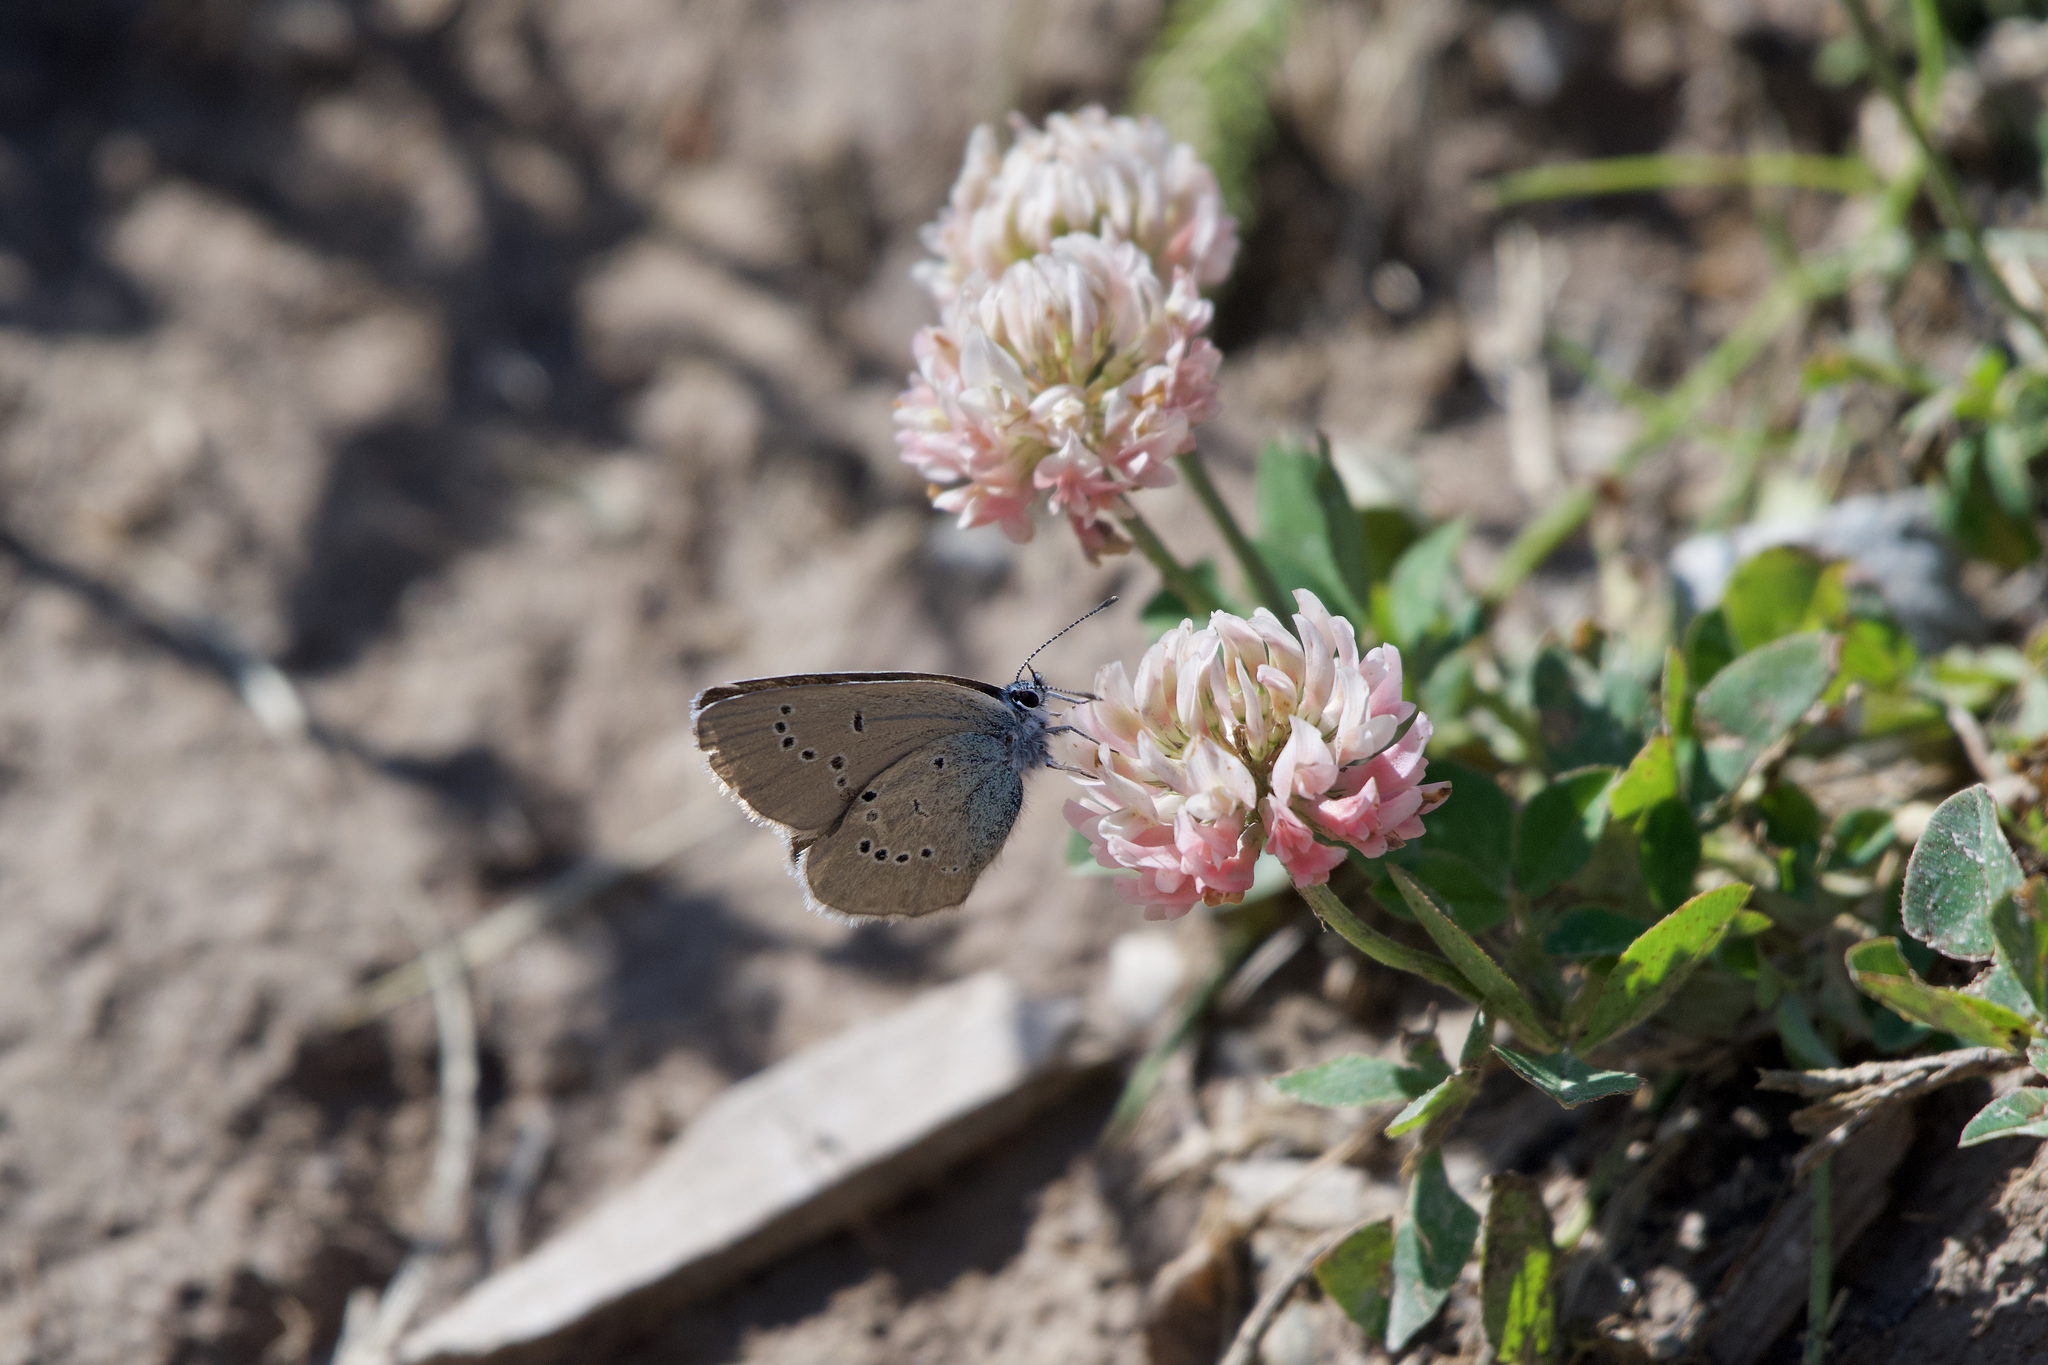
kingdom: Animalia
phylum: Arthropoda
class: Insecta
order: Lepidoptera
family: Lycaenidae
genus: Cyaniris
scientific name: Cyaniris semiargus
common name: Mazarine blue
